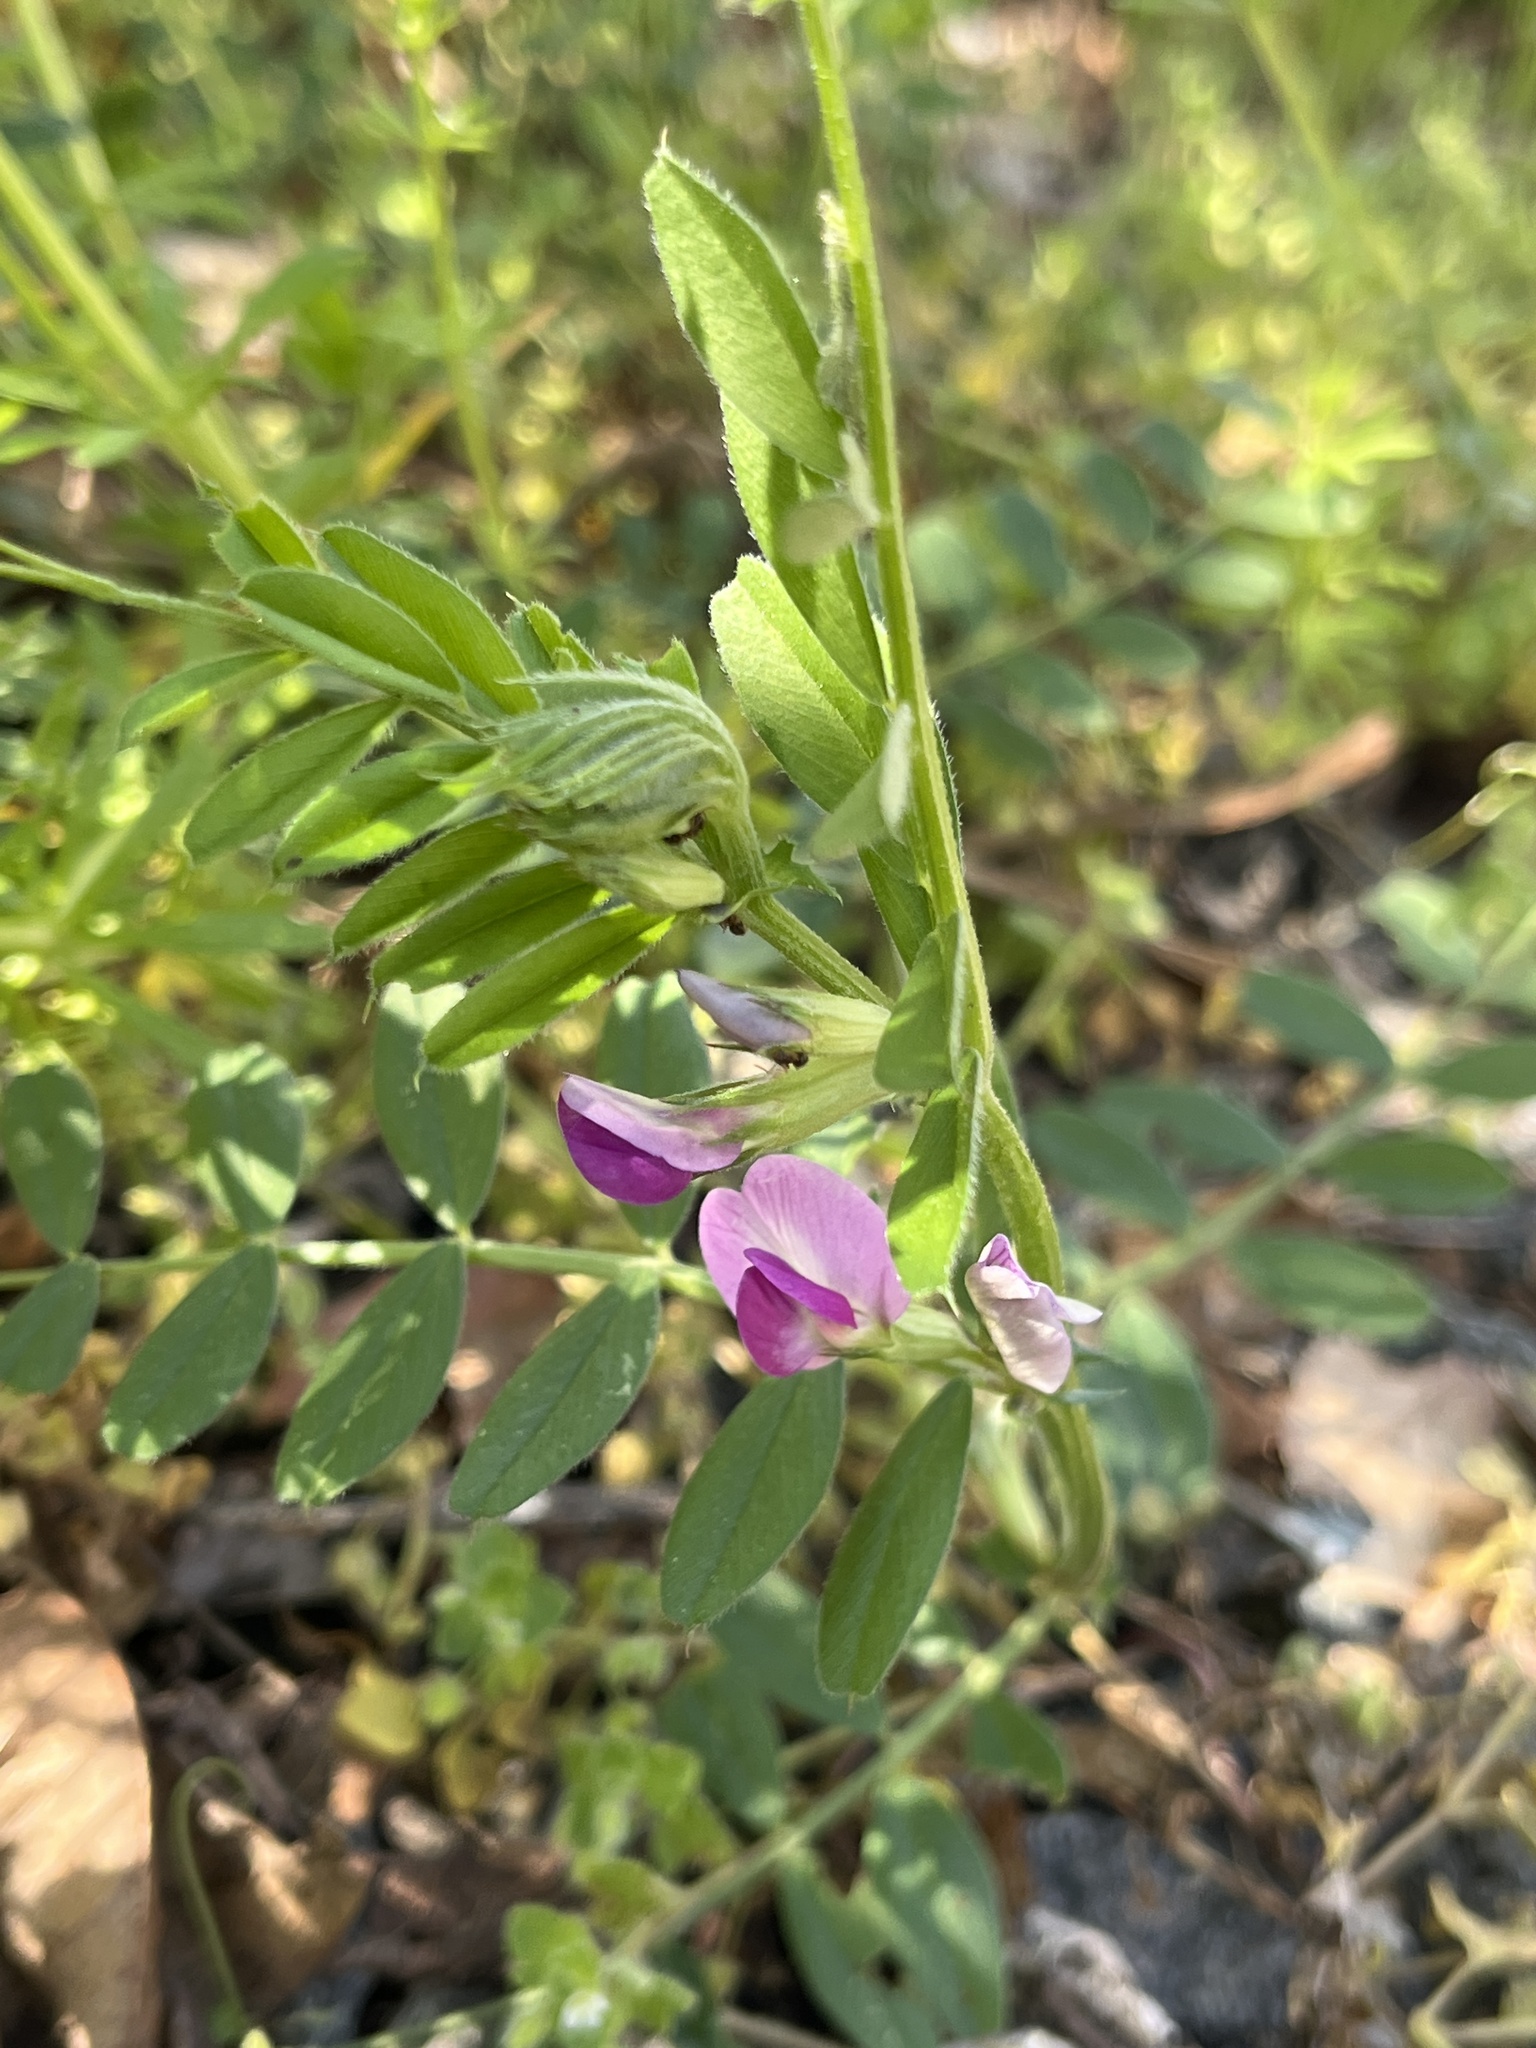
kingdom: Plantae
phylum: Tracheophyta
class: Magnoliopsida
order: Fabales
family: Fabaceae
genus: Vicia
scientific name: Vicia sativa
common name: Garden vetch
